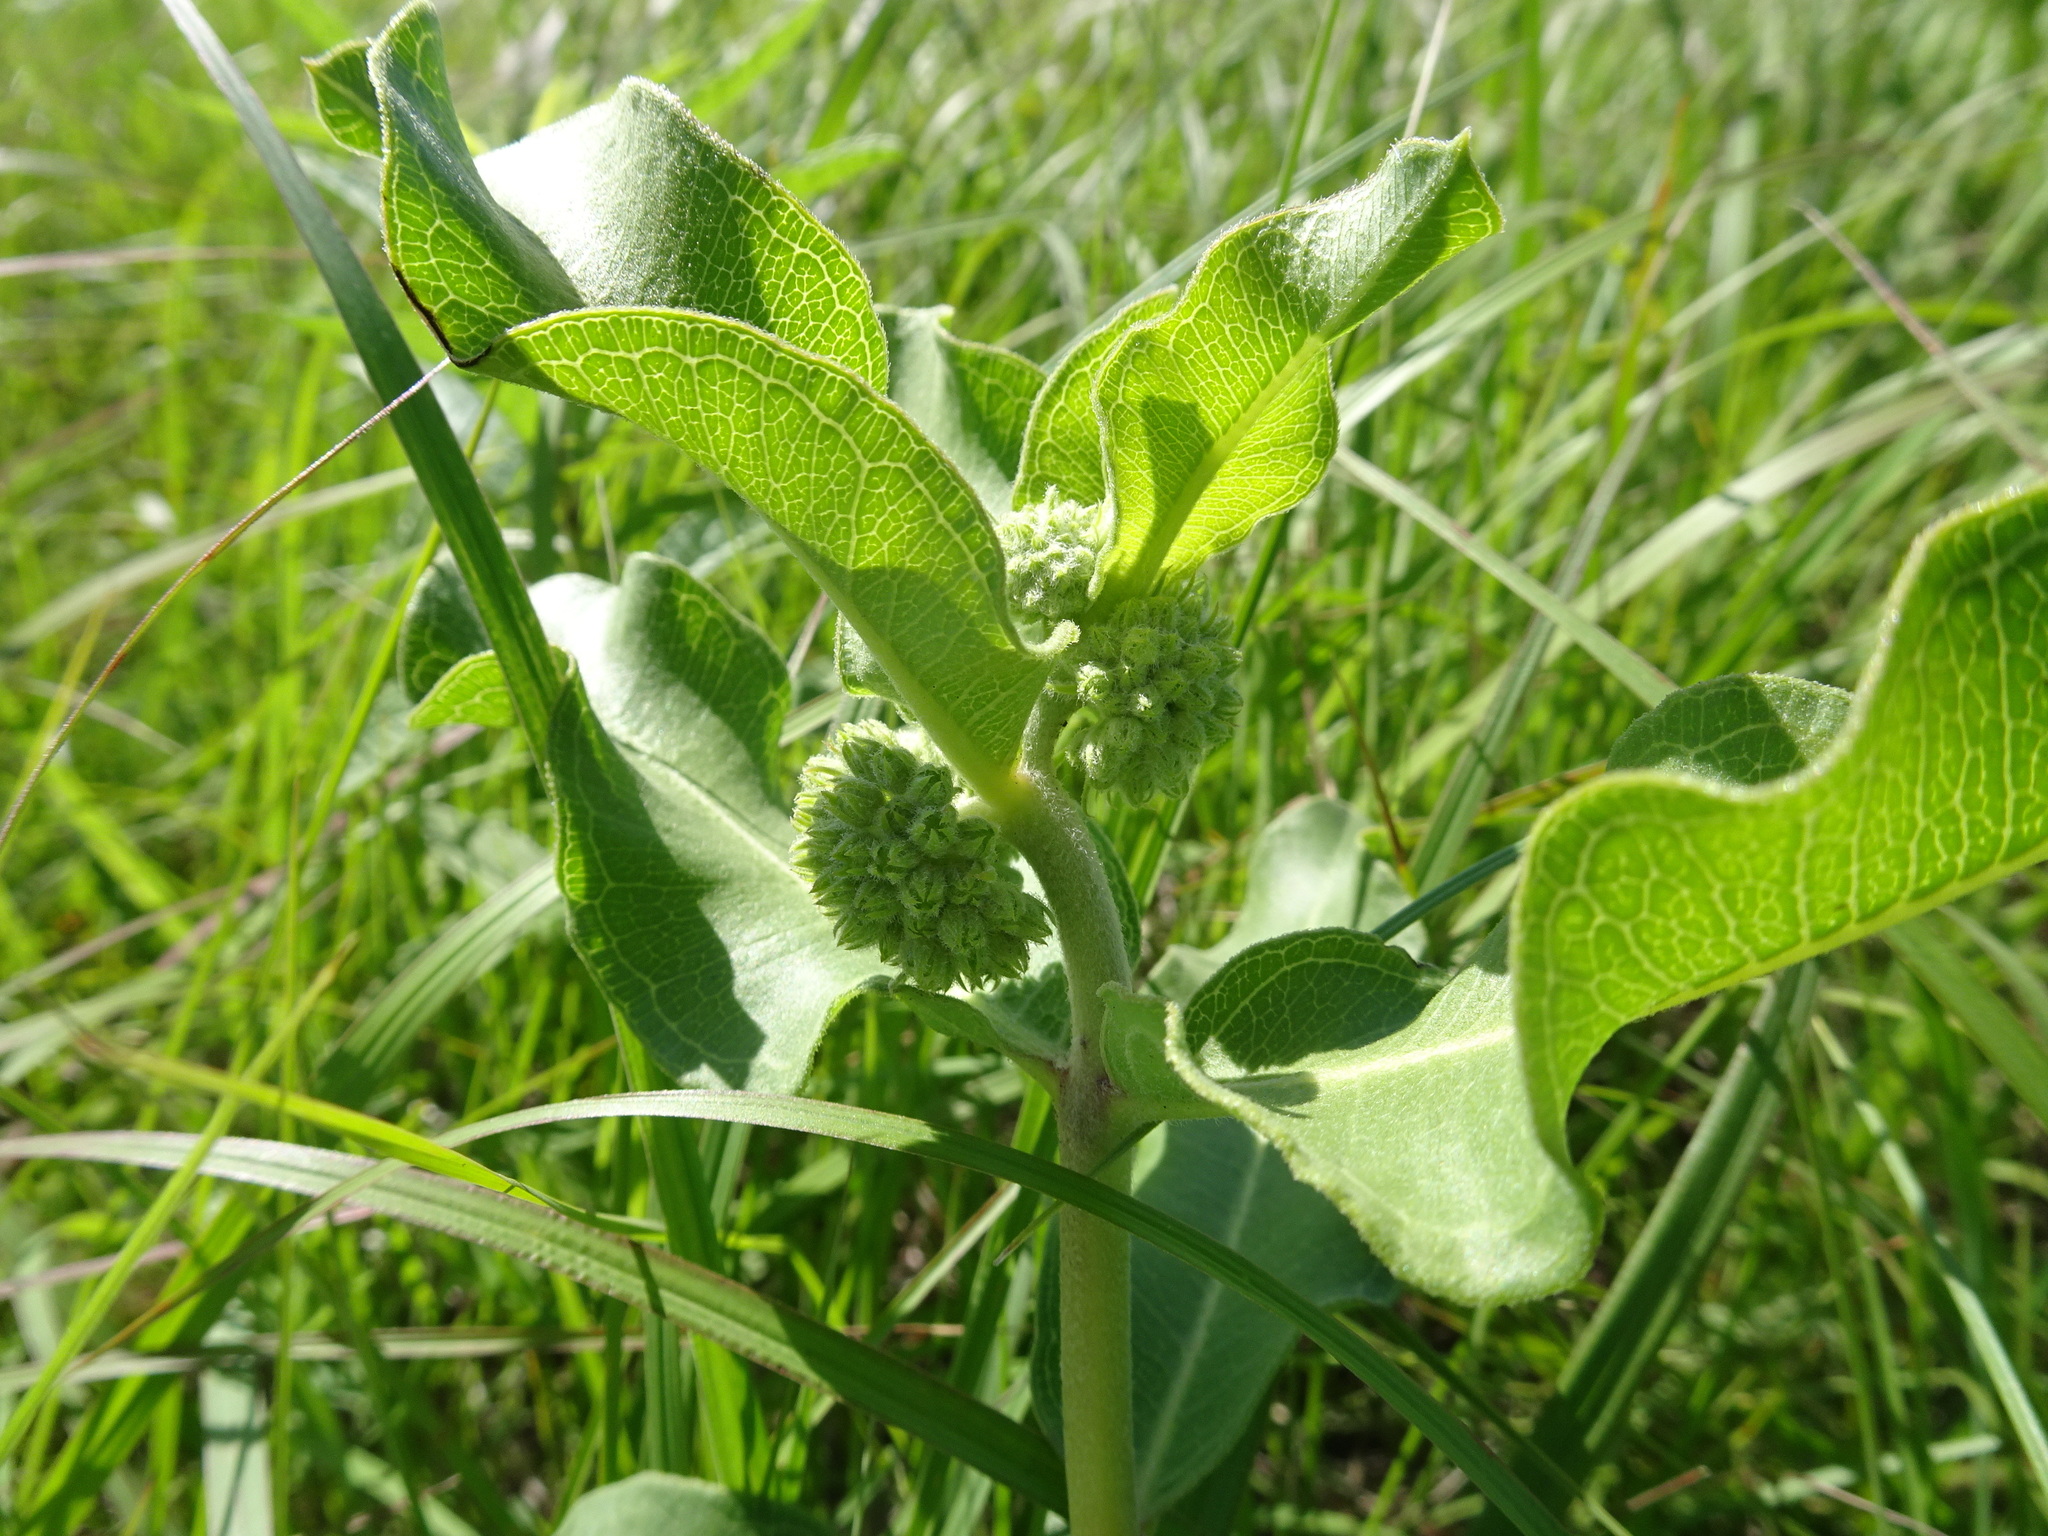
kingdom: Plantae
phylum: Tracheophyta
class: Magnoliopsida
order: Gentianales
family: Apocynaceae
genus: Asclepias
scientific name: Asclepias viridiflora
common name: Green comet milkweed
